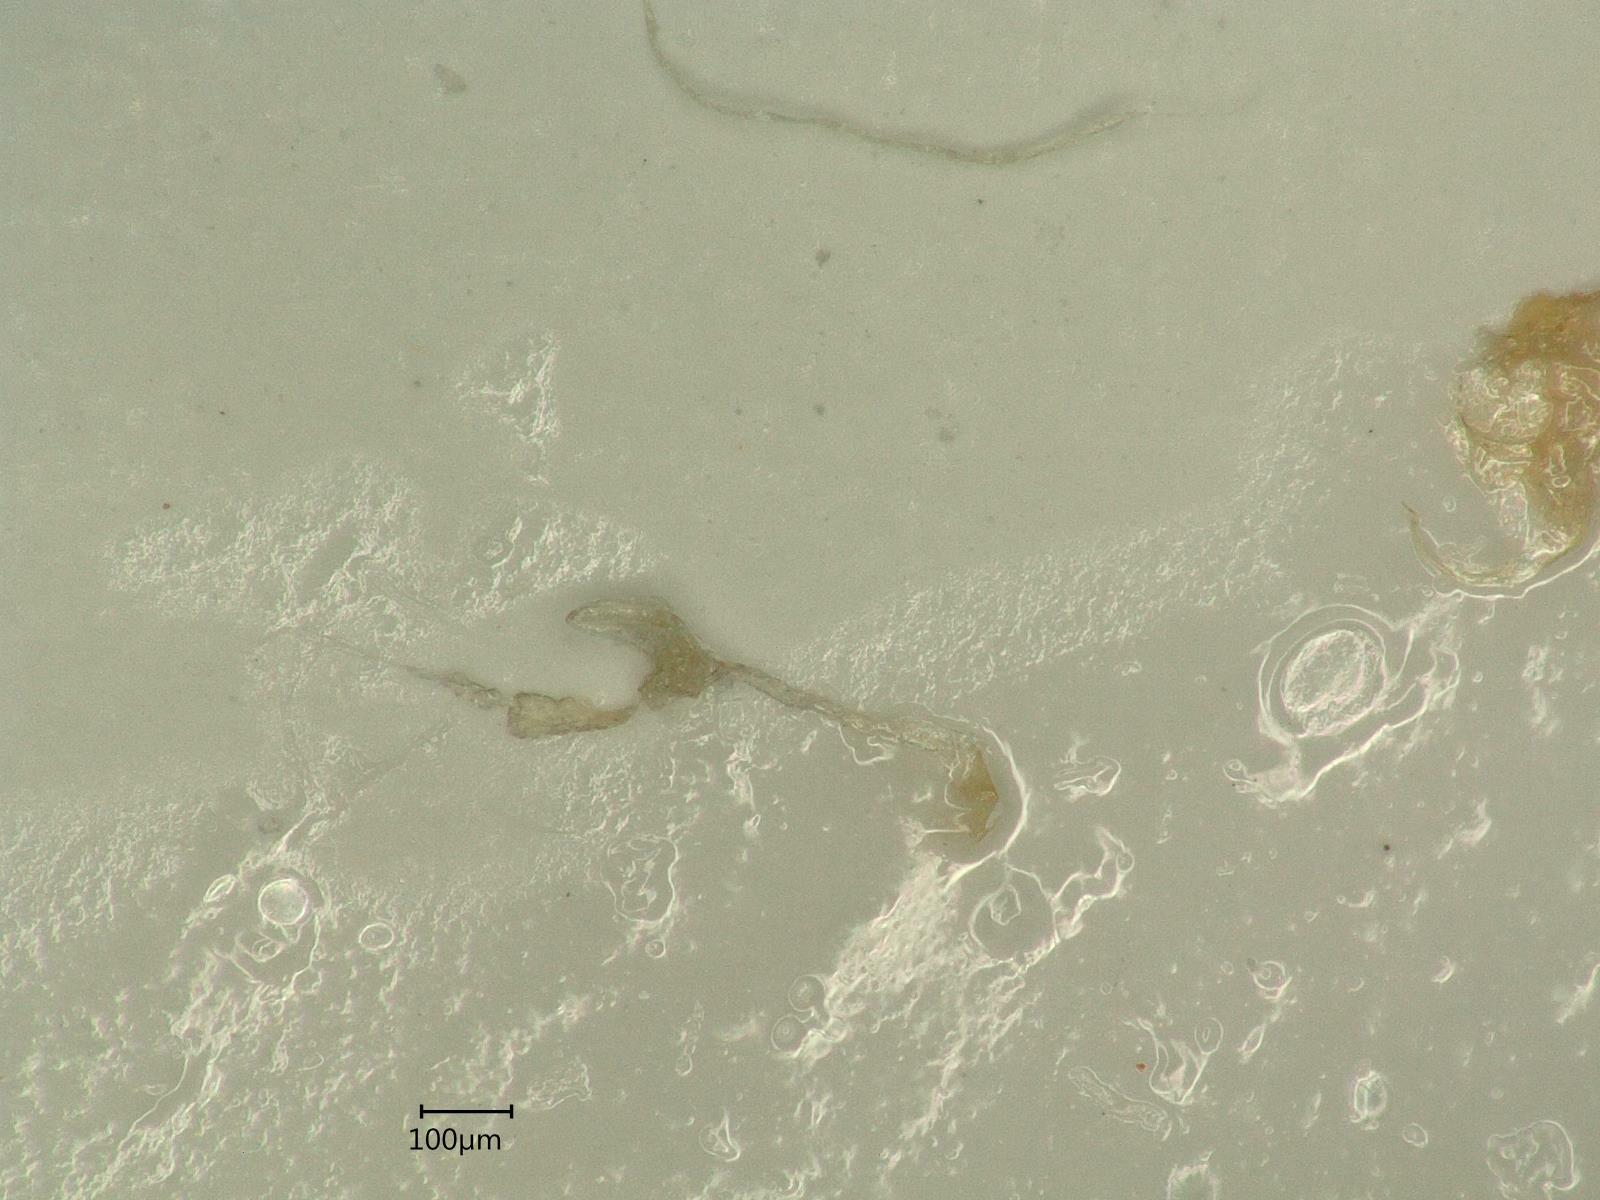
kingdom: Animalia
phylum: Arthropoda
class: Insecta
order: Hemiptera
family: Cicadellidae
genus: Kybos
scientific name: Kybos virgator
